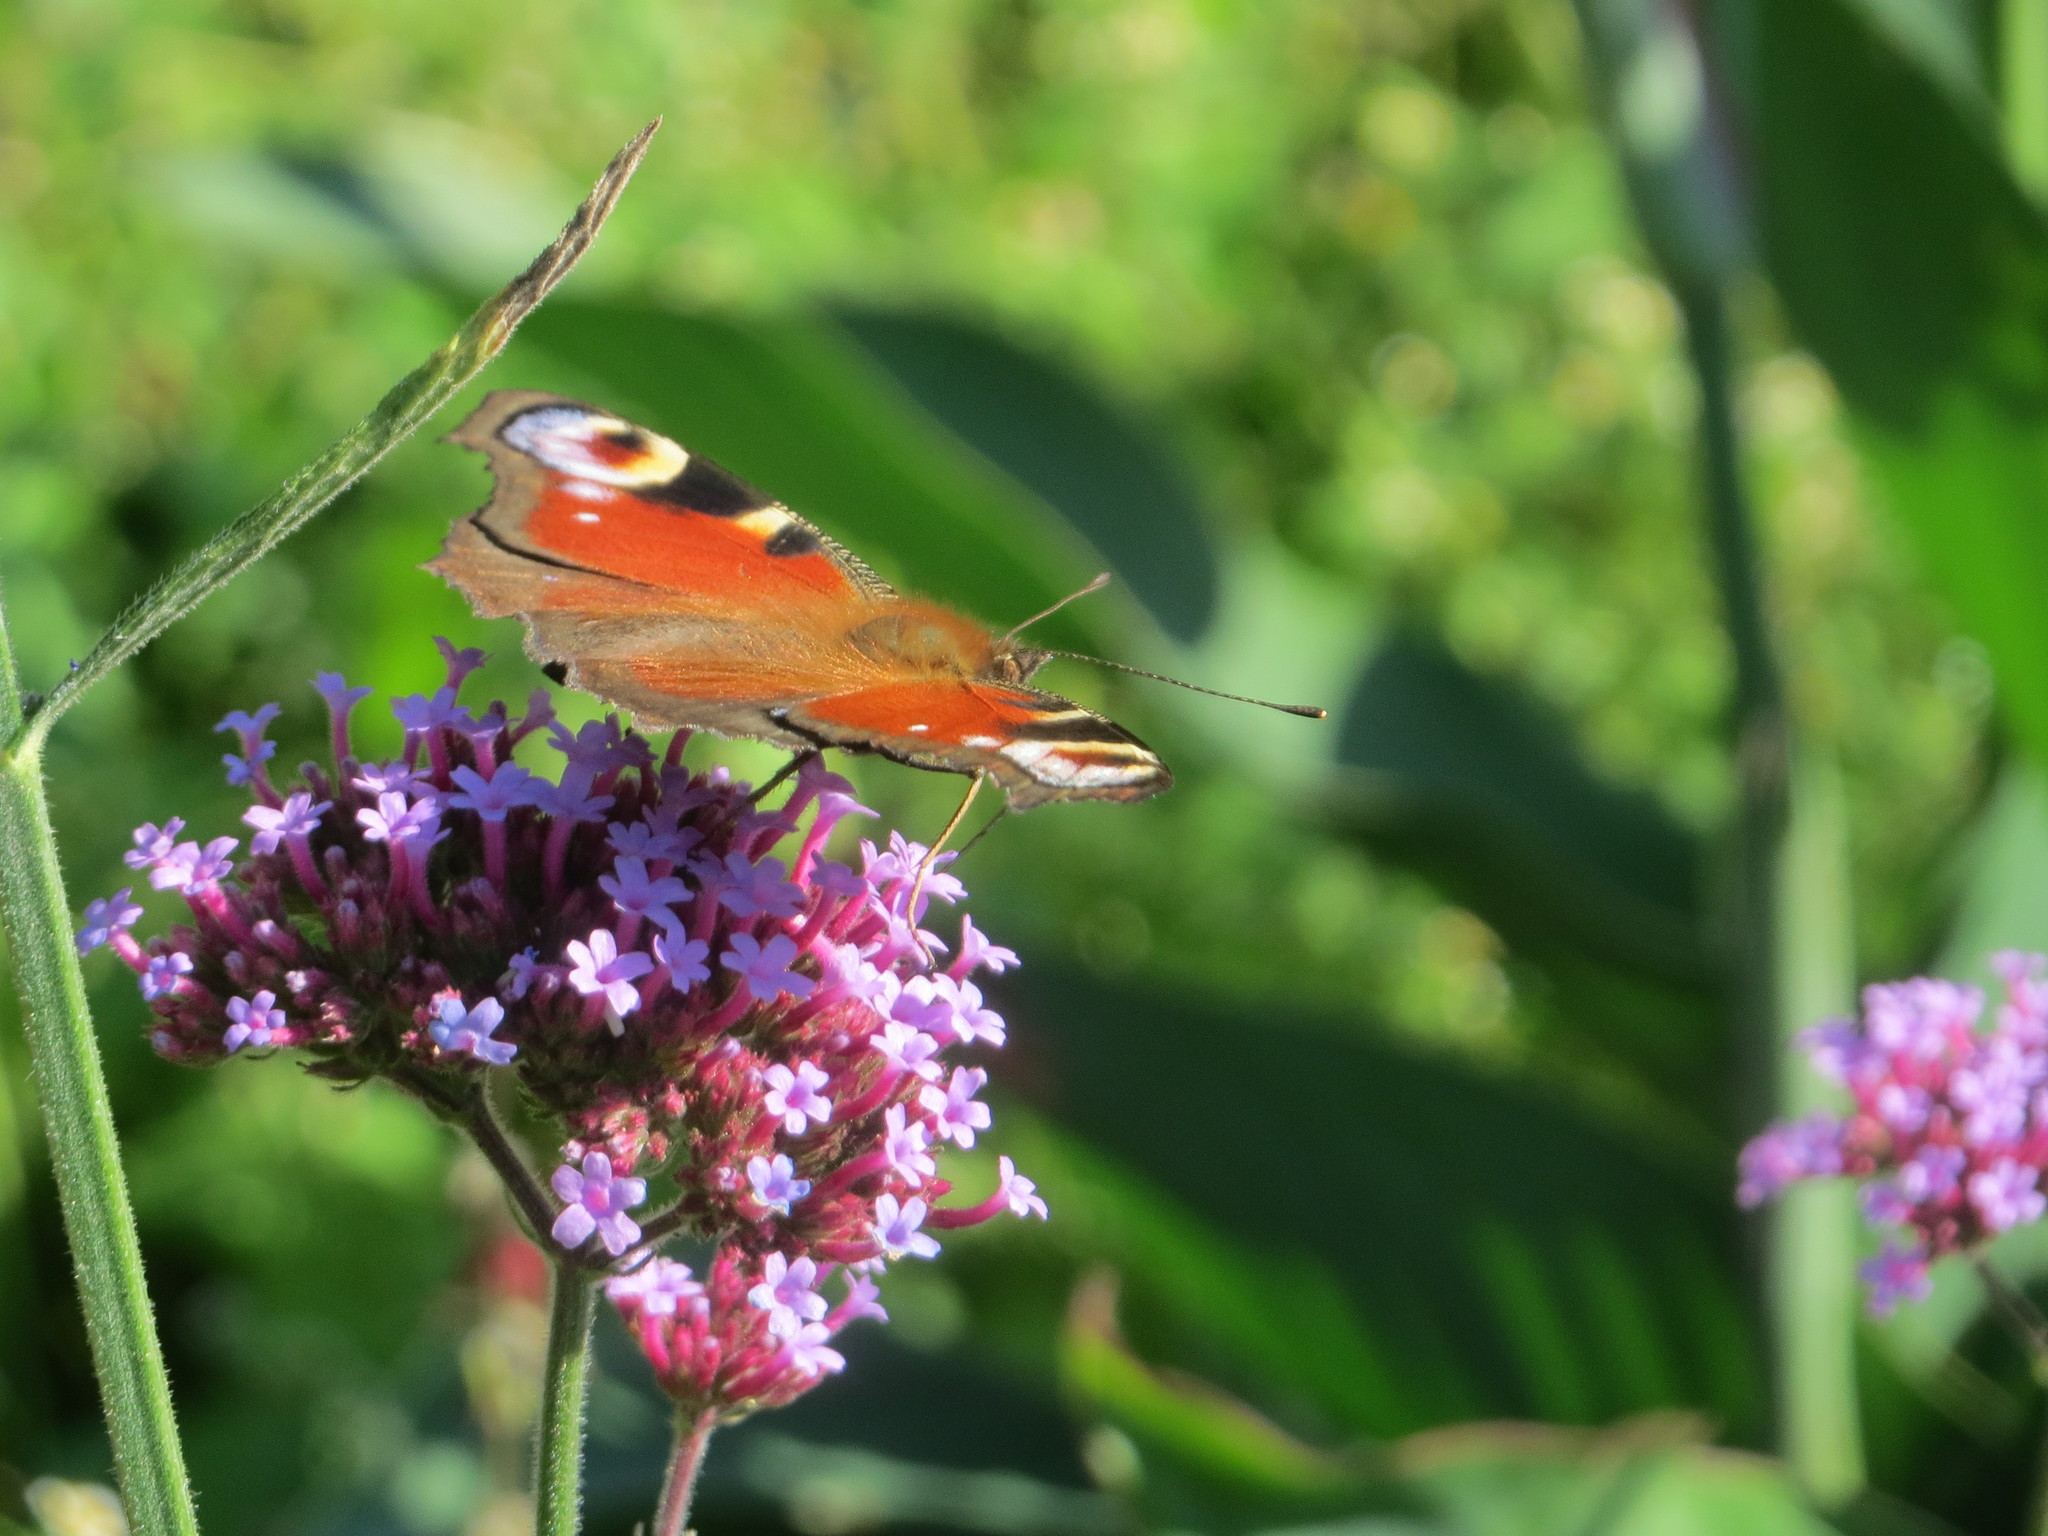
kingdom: Animalia
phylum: Arthropoda
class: Insecta
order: Lepidoptera
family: Nymphalidae
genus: Aglais
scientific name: Aglais io
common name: Peacock
